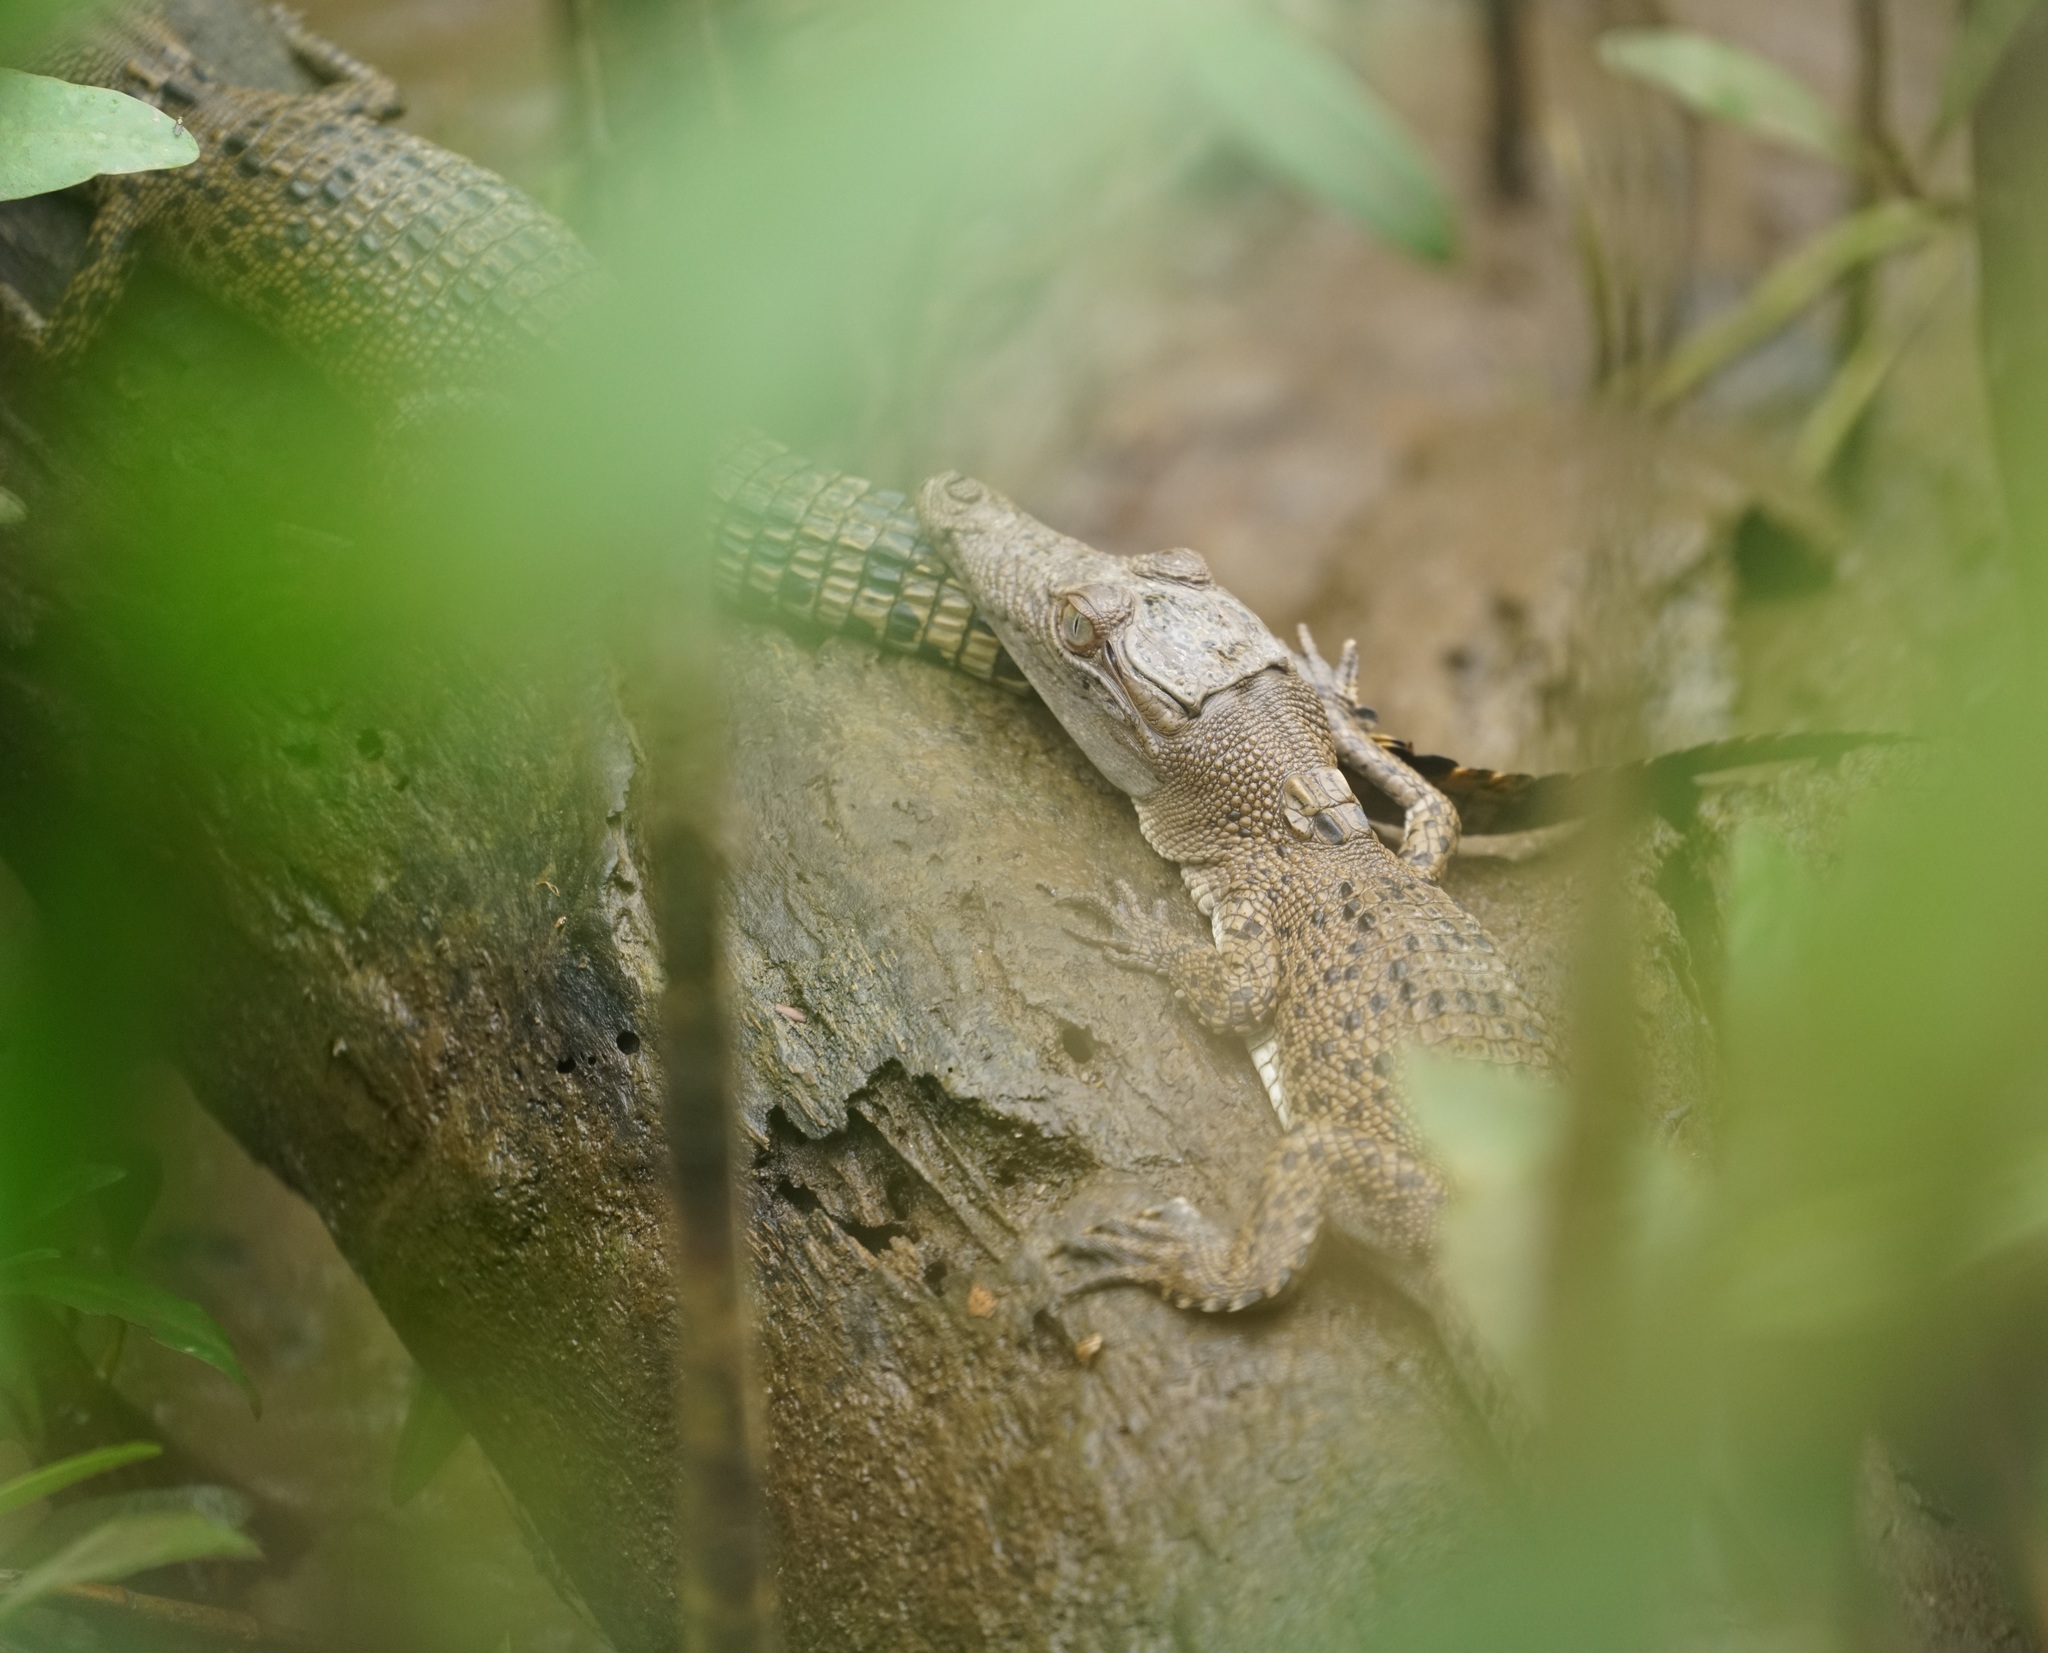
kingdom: Animalia
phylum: Chordata
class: Crocodylia
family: Crocodylidae
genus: Crocodylus
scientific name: Crocodylus porosus
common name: Saltwater crocodile
